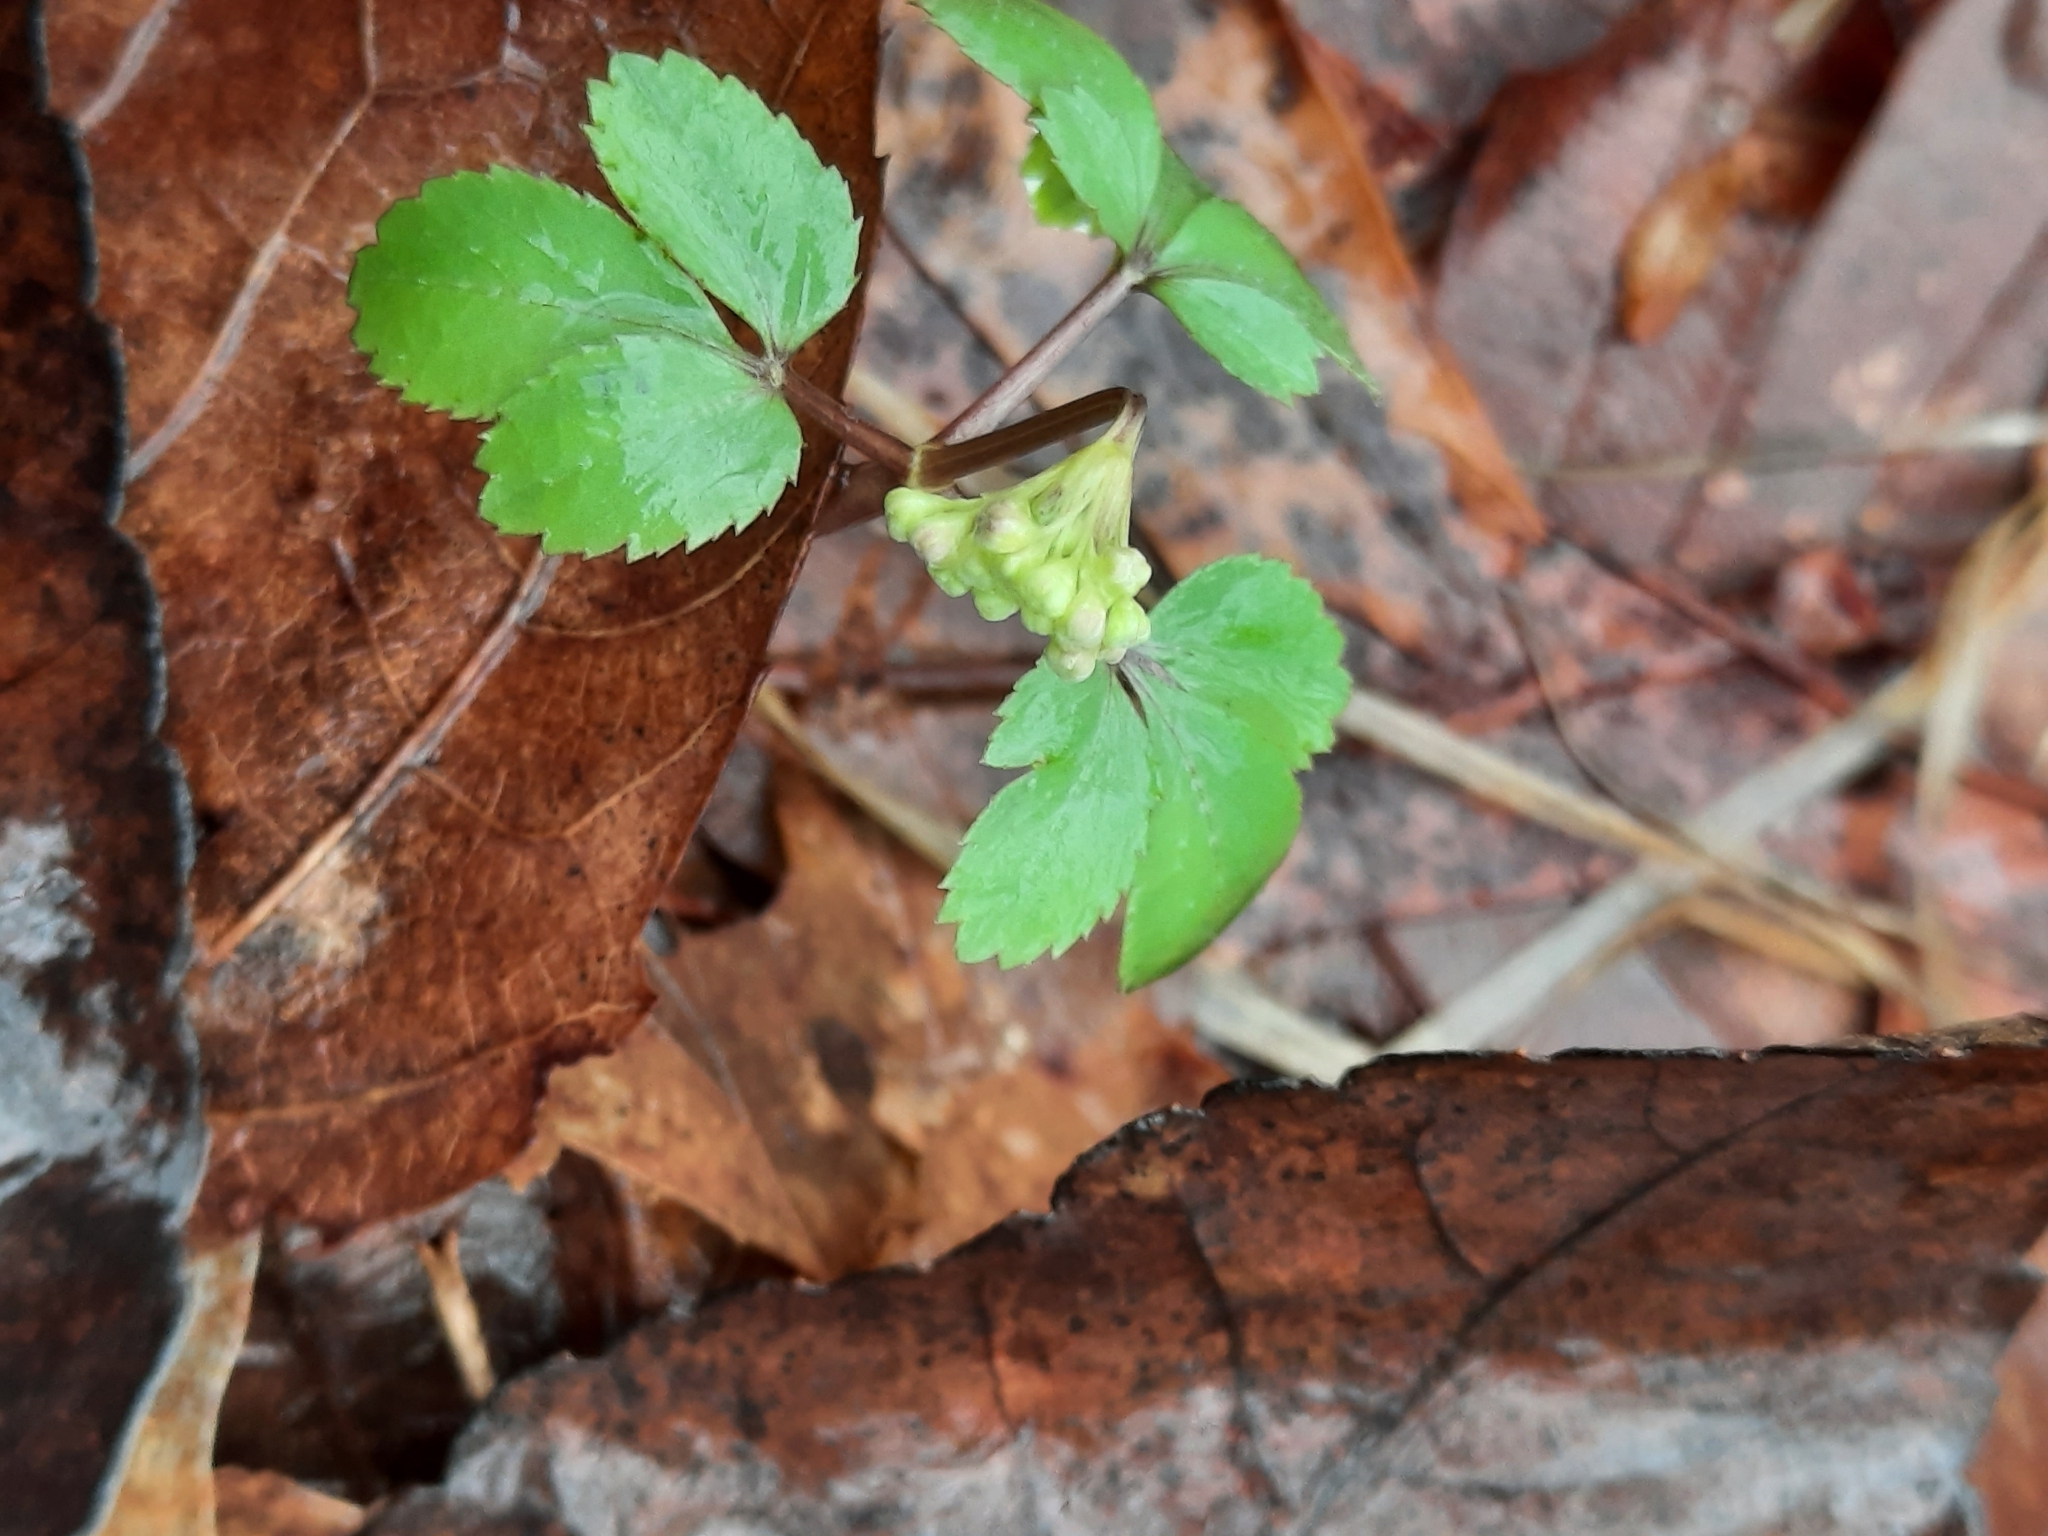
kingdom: Plantae
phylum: Tracheophyta
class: Magnoliopsida
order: Apiales
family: Araliaceae
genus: Panax
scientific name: Panax trifolius
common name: Dwarf ginseng
